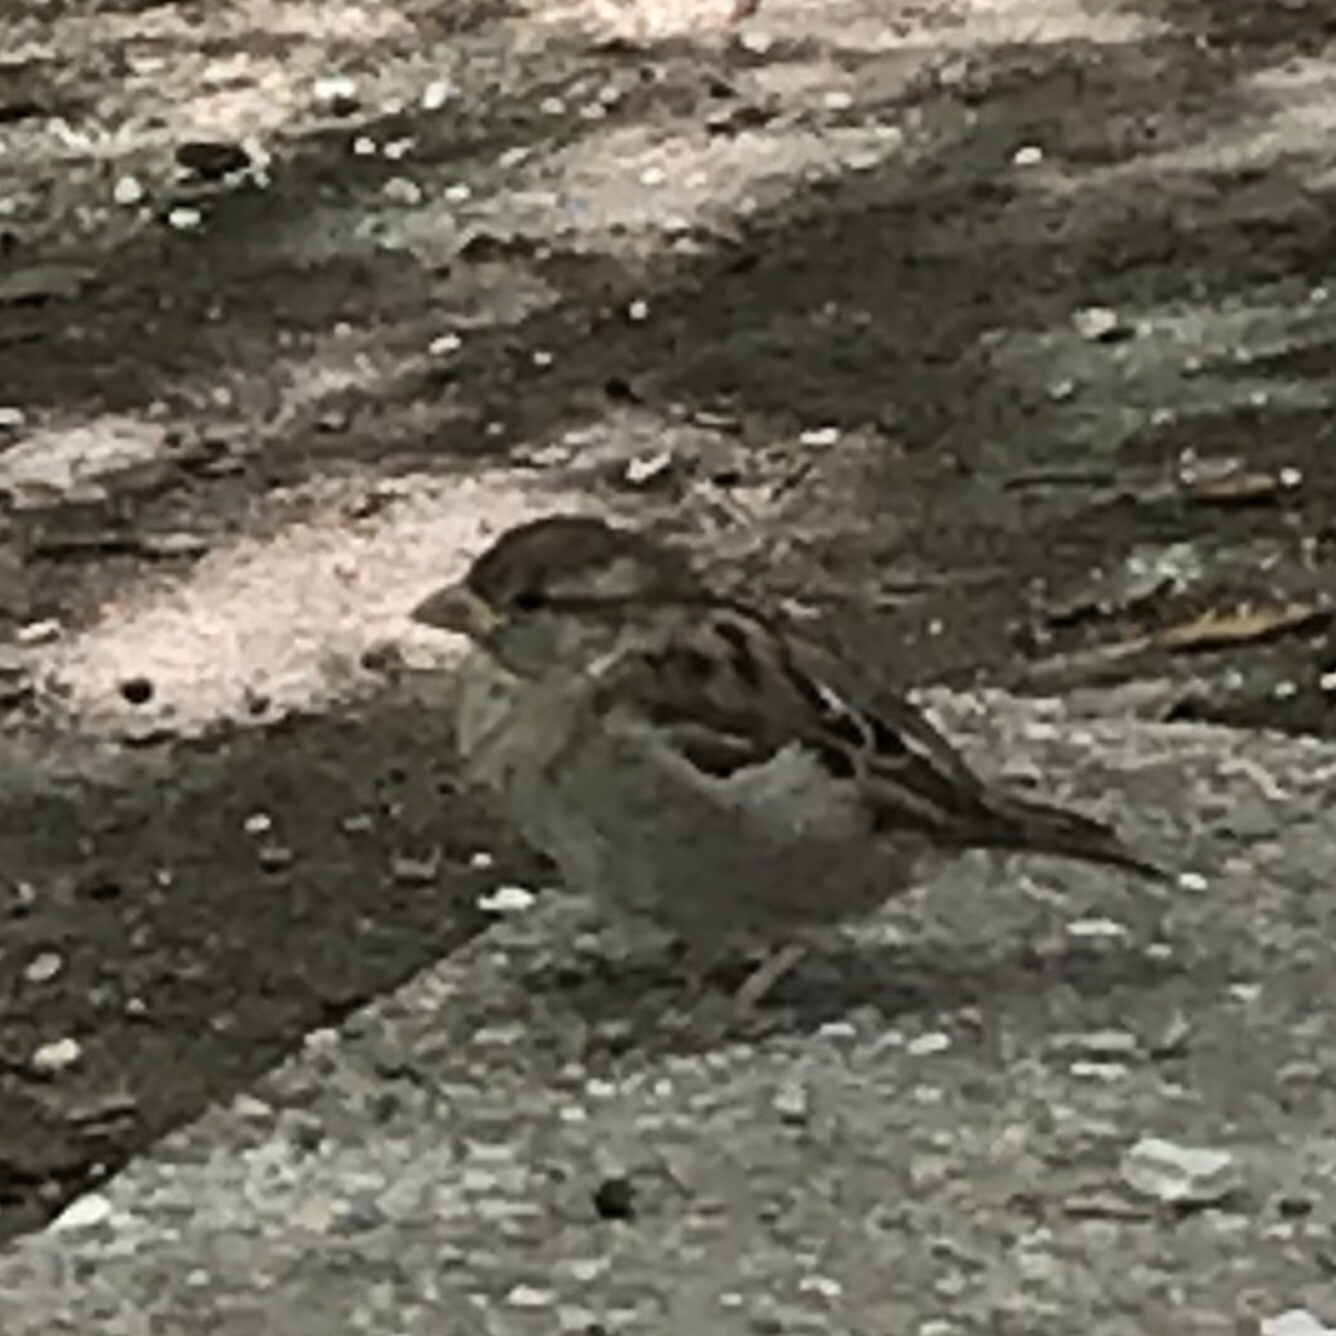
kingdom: Animalia
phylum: Chordata
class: Aves
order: Passeriformes
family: Passeridae
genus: Passer
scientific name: Passer domesticus
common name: House sparrow
